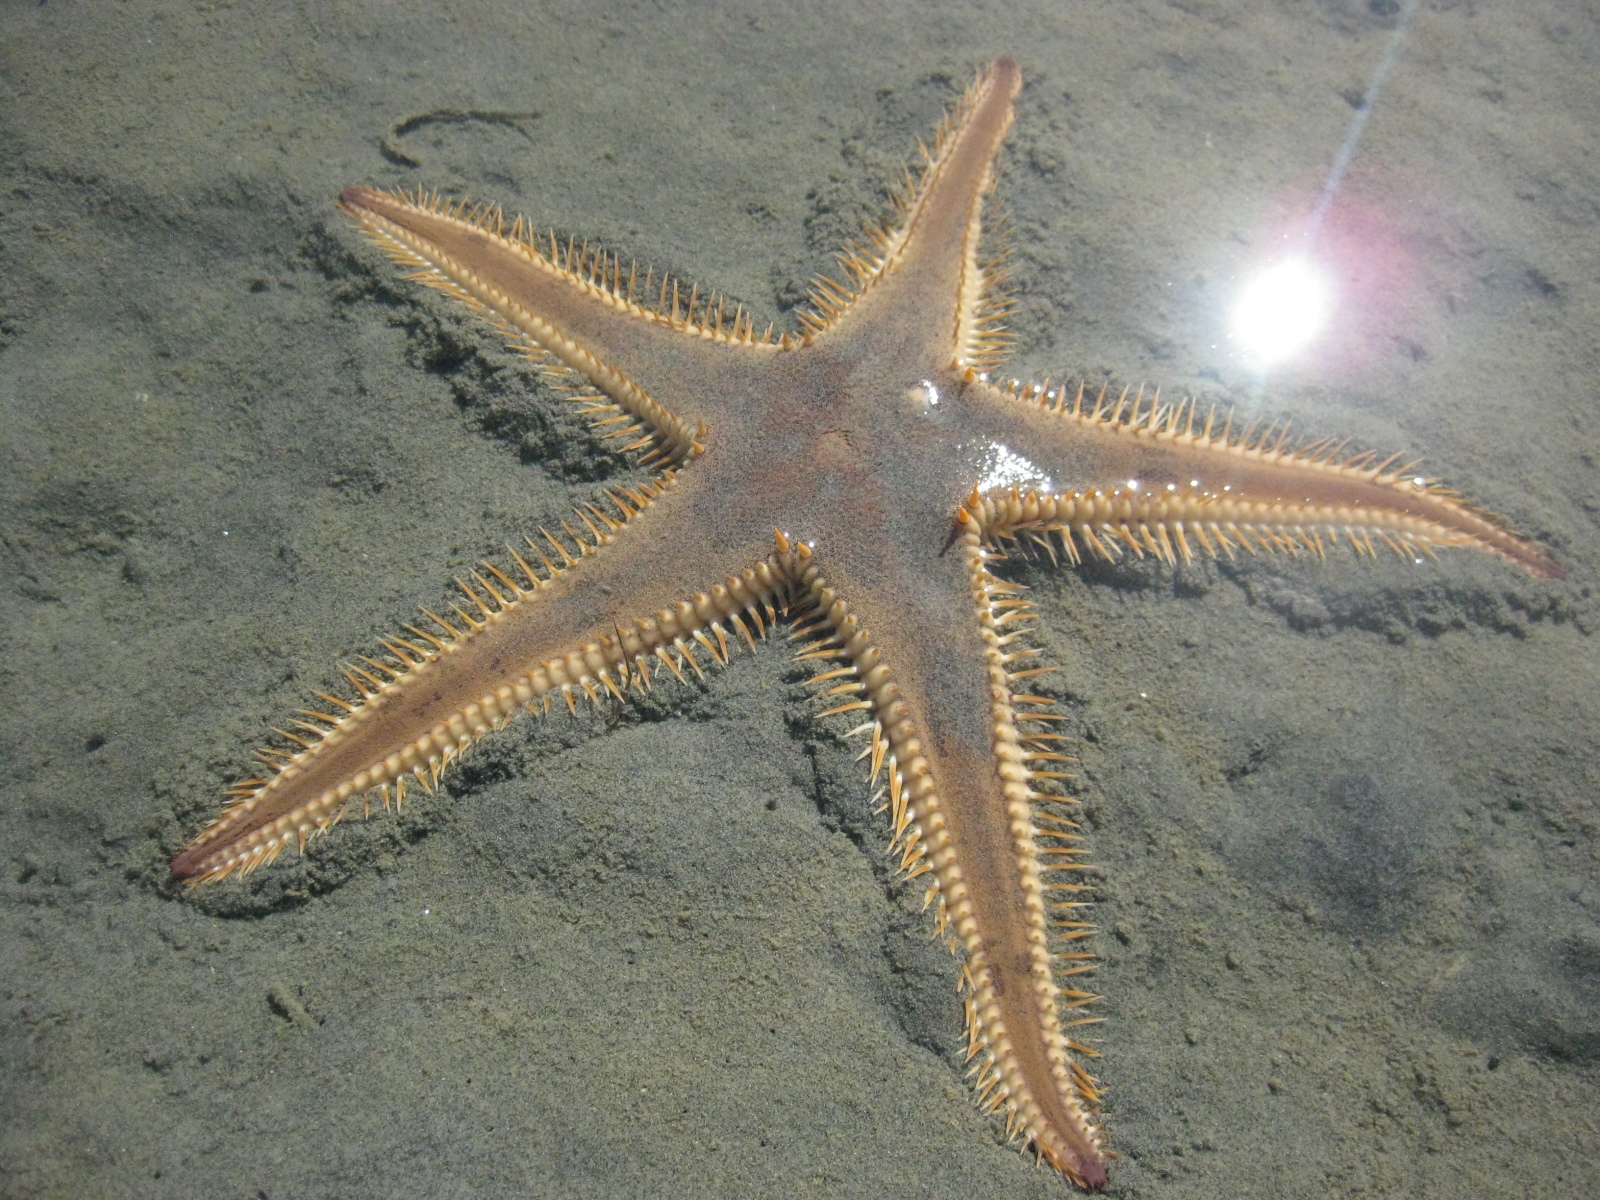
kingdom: Animalia
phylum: Echinodermata
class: Asteroidea
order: Paxillosida
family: Astropectinidae
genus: Astropecten
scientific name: Astropecten polyacanthus
